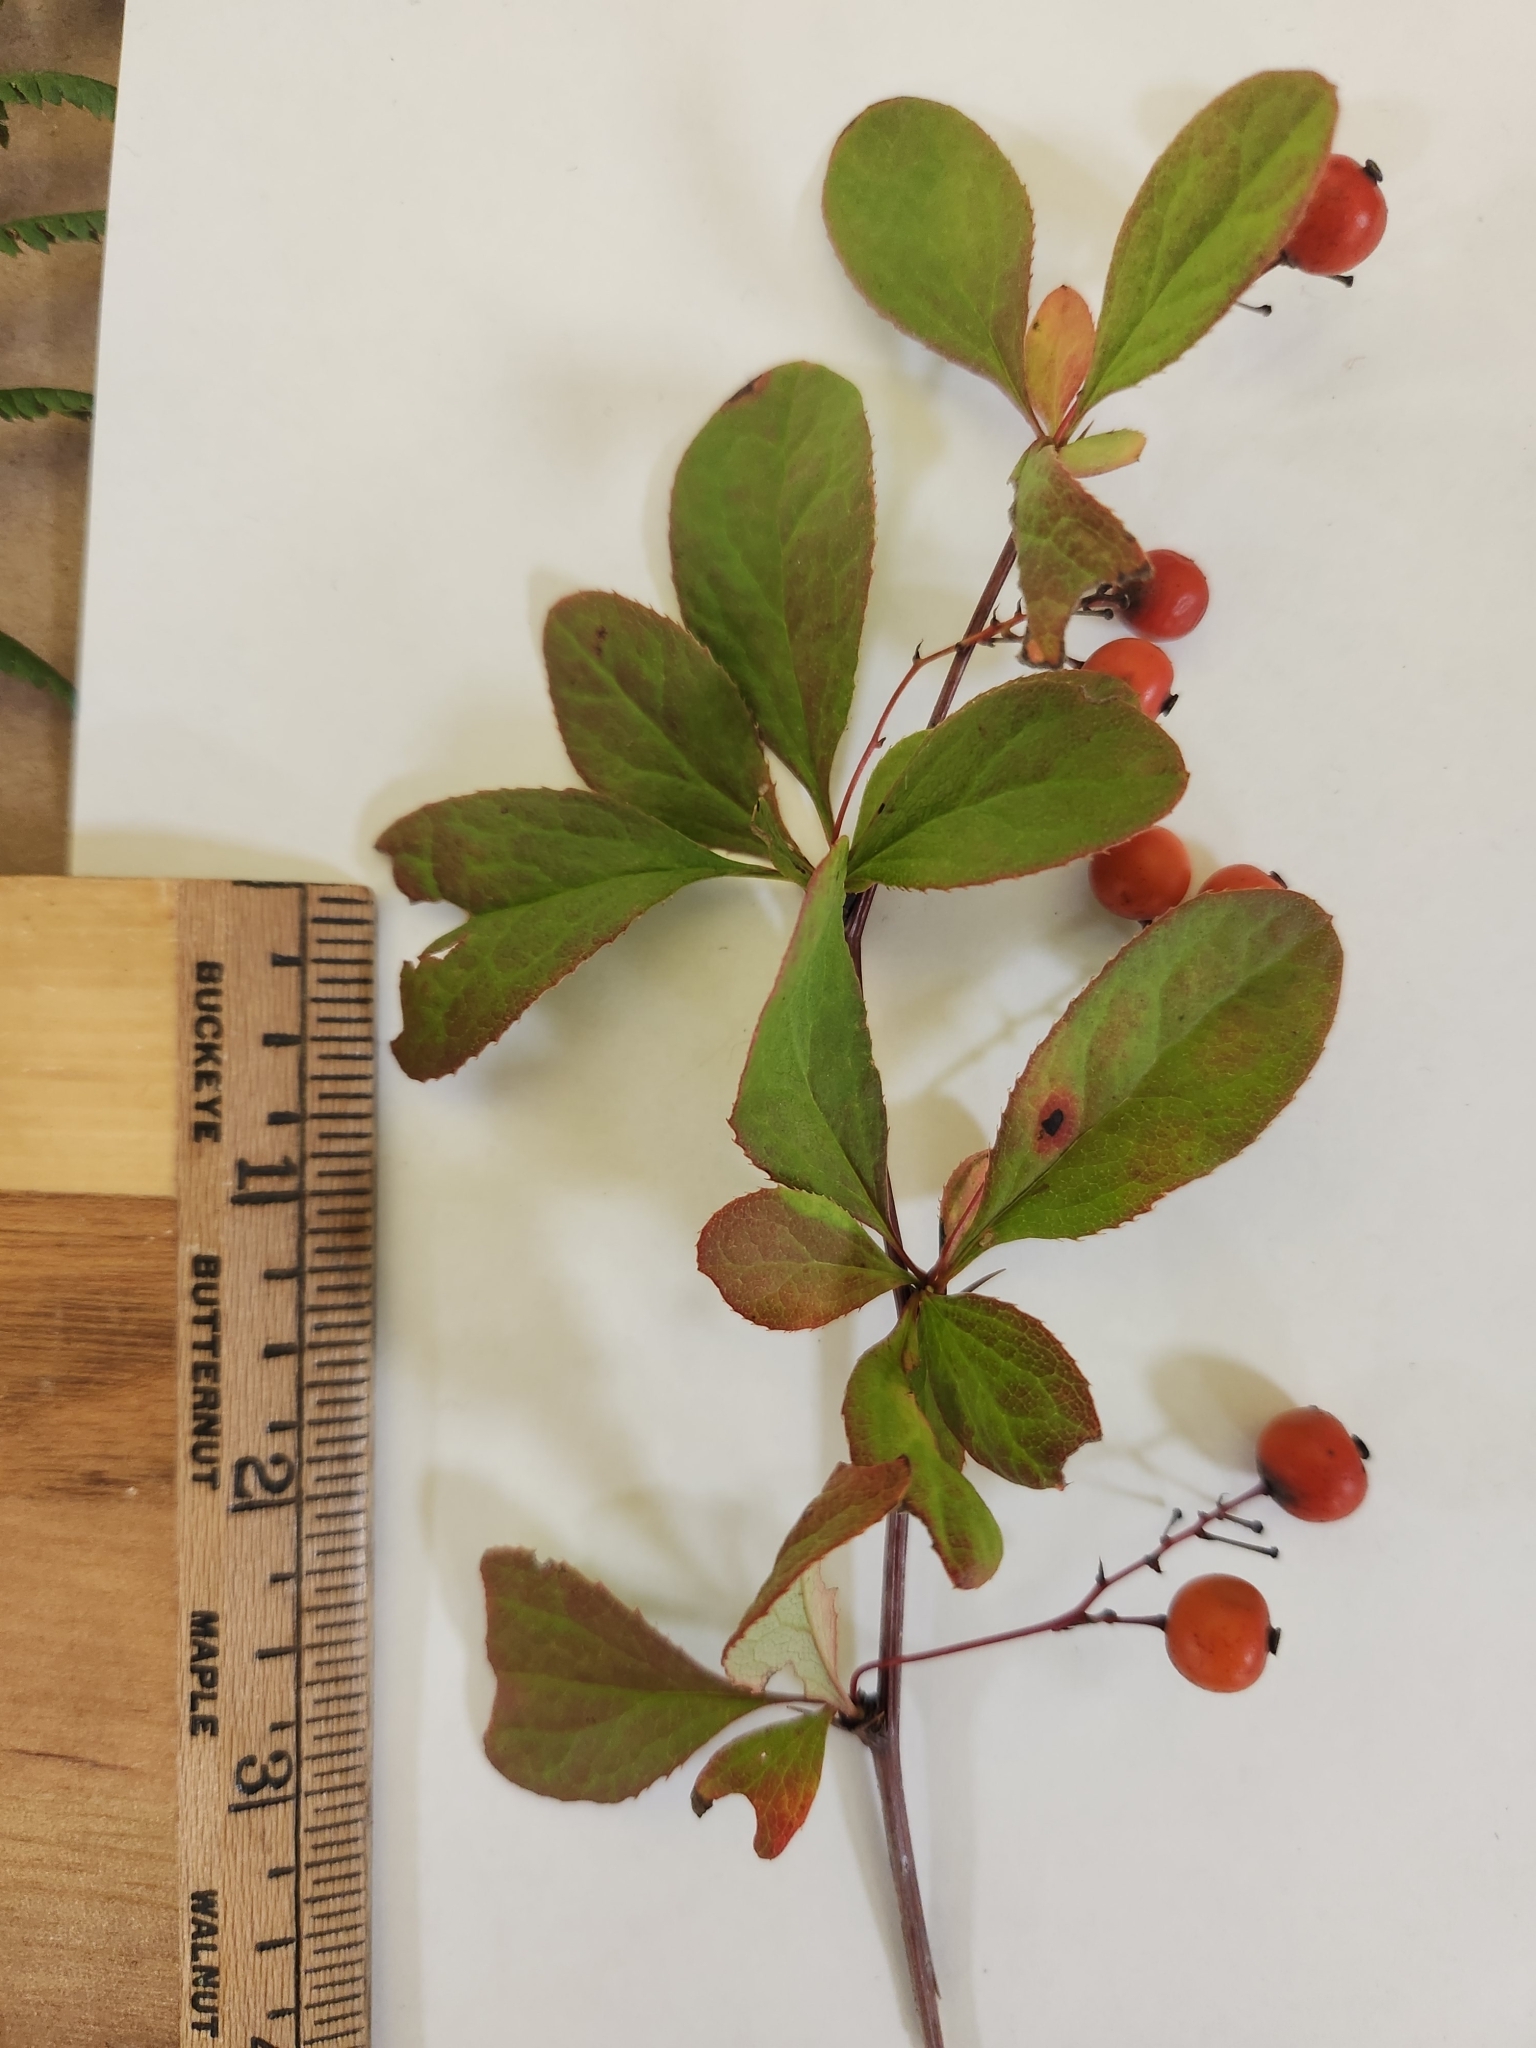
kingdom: Plantae
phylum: Tracheophyta
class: Magnoliopsida
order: Ranunculales
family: Berberidaceae
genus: Berberis
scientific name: Berberis vulgaris
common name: Barberry
